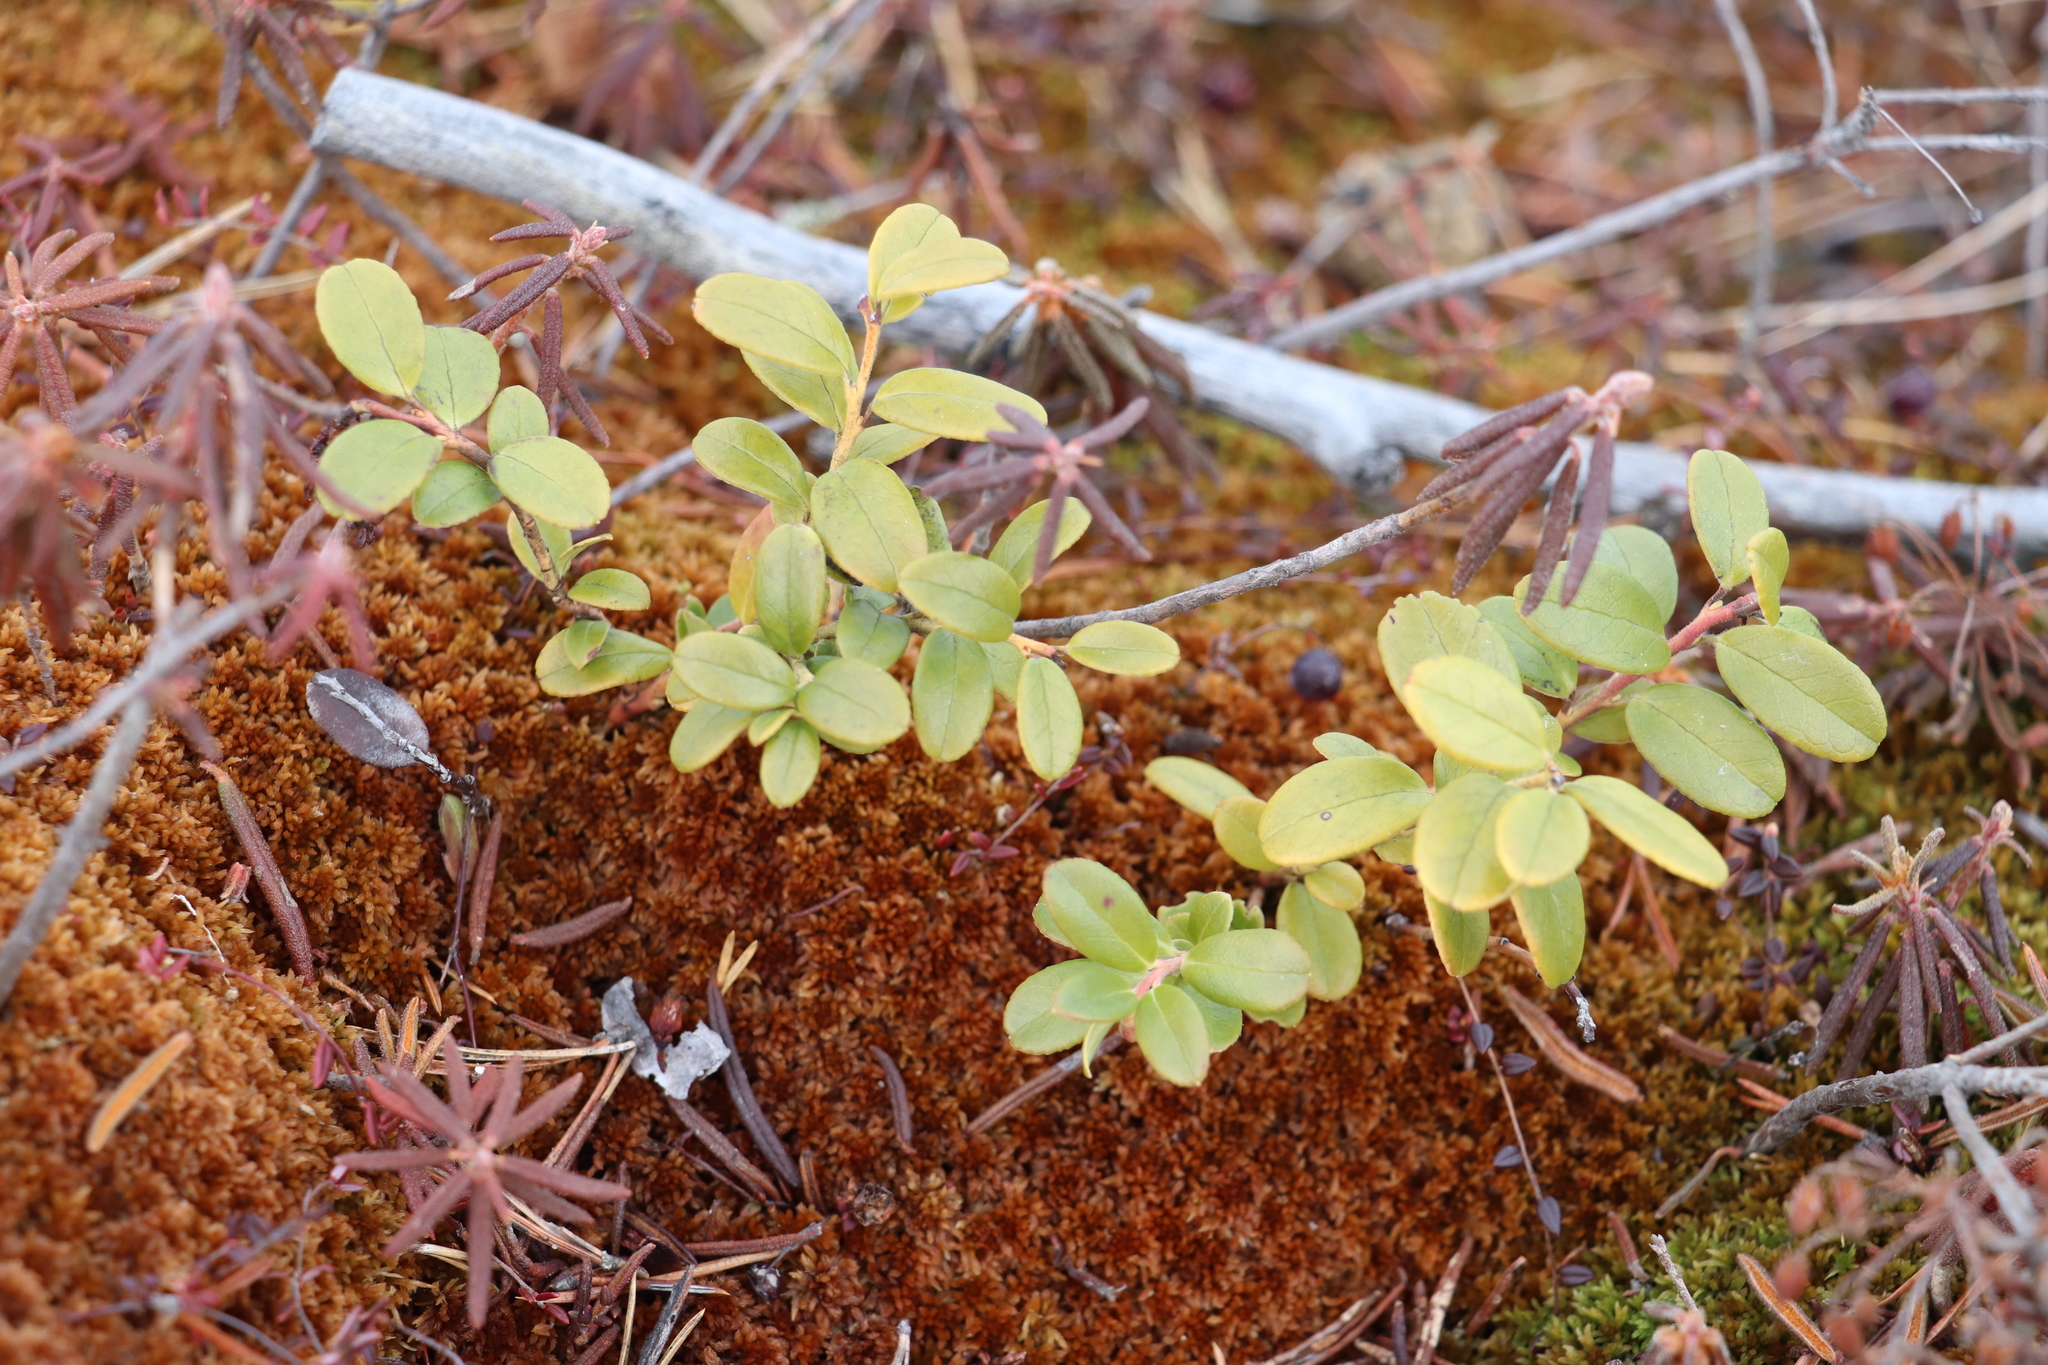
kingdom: Plantae
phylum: Tracheophyta
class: Magnoliopsida
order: Ericales
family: Ericaceae
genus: Vaccinium
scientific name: Vaccinium vitis-idaea
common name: Cowberry
